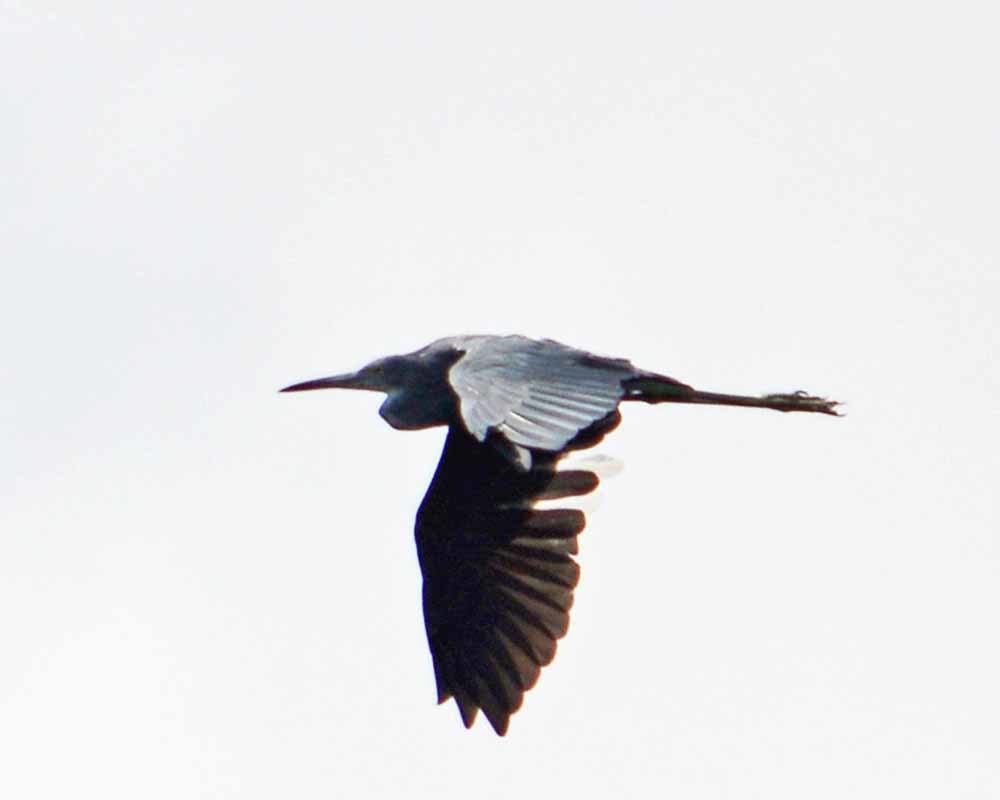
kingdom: Animalia
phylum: Chordata
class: Aves
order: Pelecaniformes
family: Ardeidae
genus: Egretta
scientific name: Egretta caerulea
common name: Little blue heron
